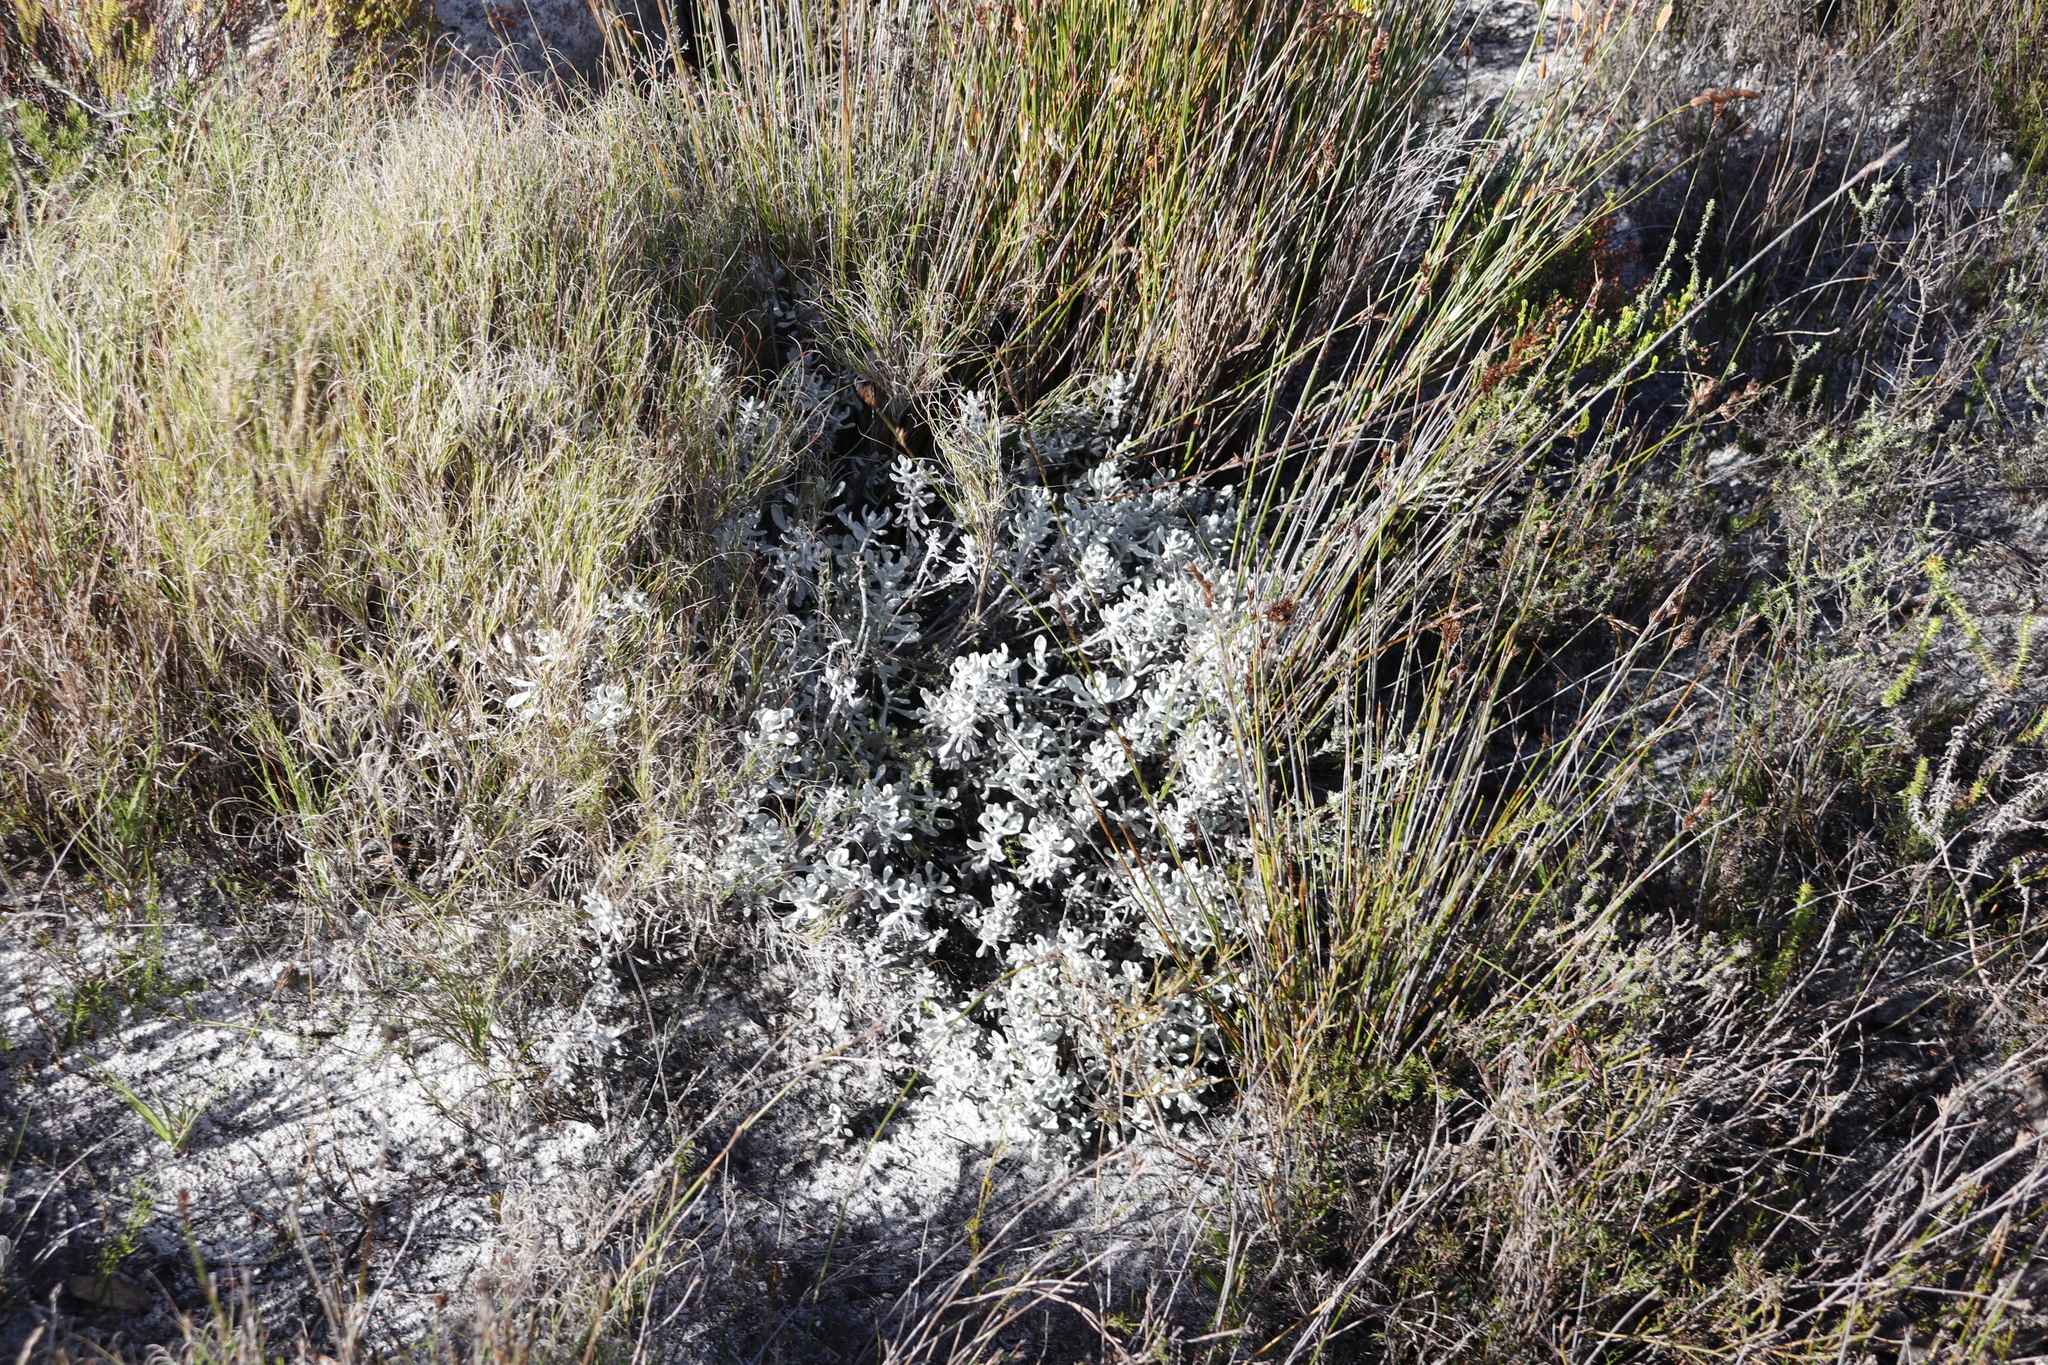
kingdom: Plantae
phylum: Tracheophyta
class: Magnoliopsida
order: Asterales
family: Asteraceae
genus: Petalacte
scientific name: Petalacte coronata
